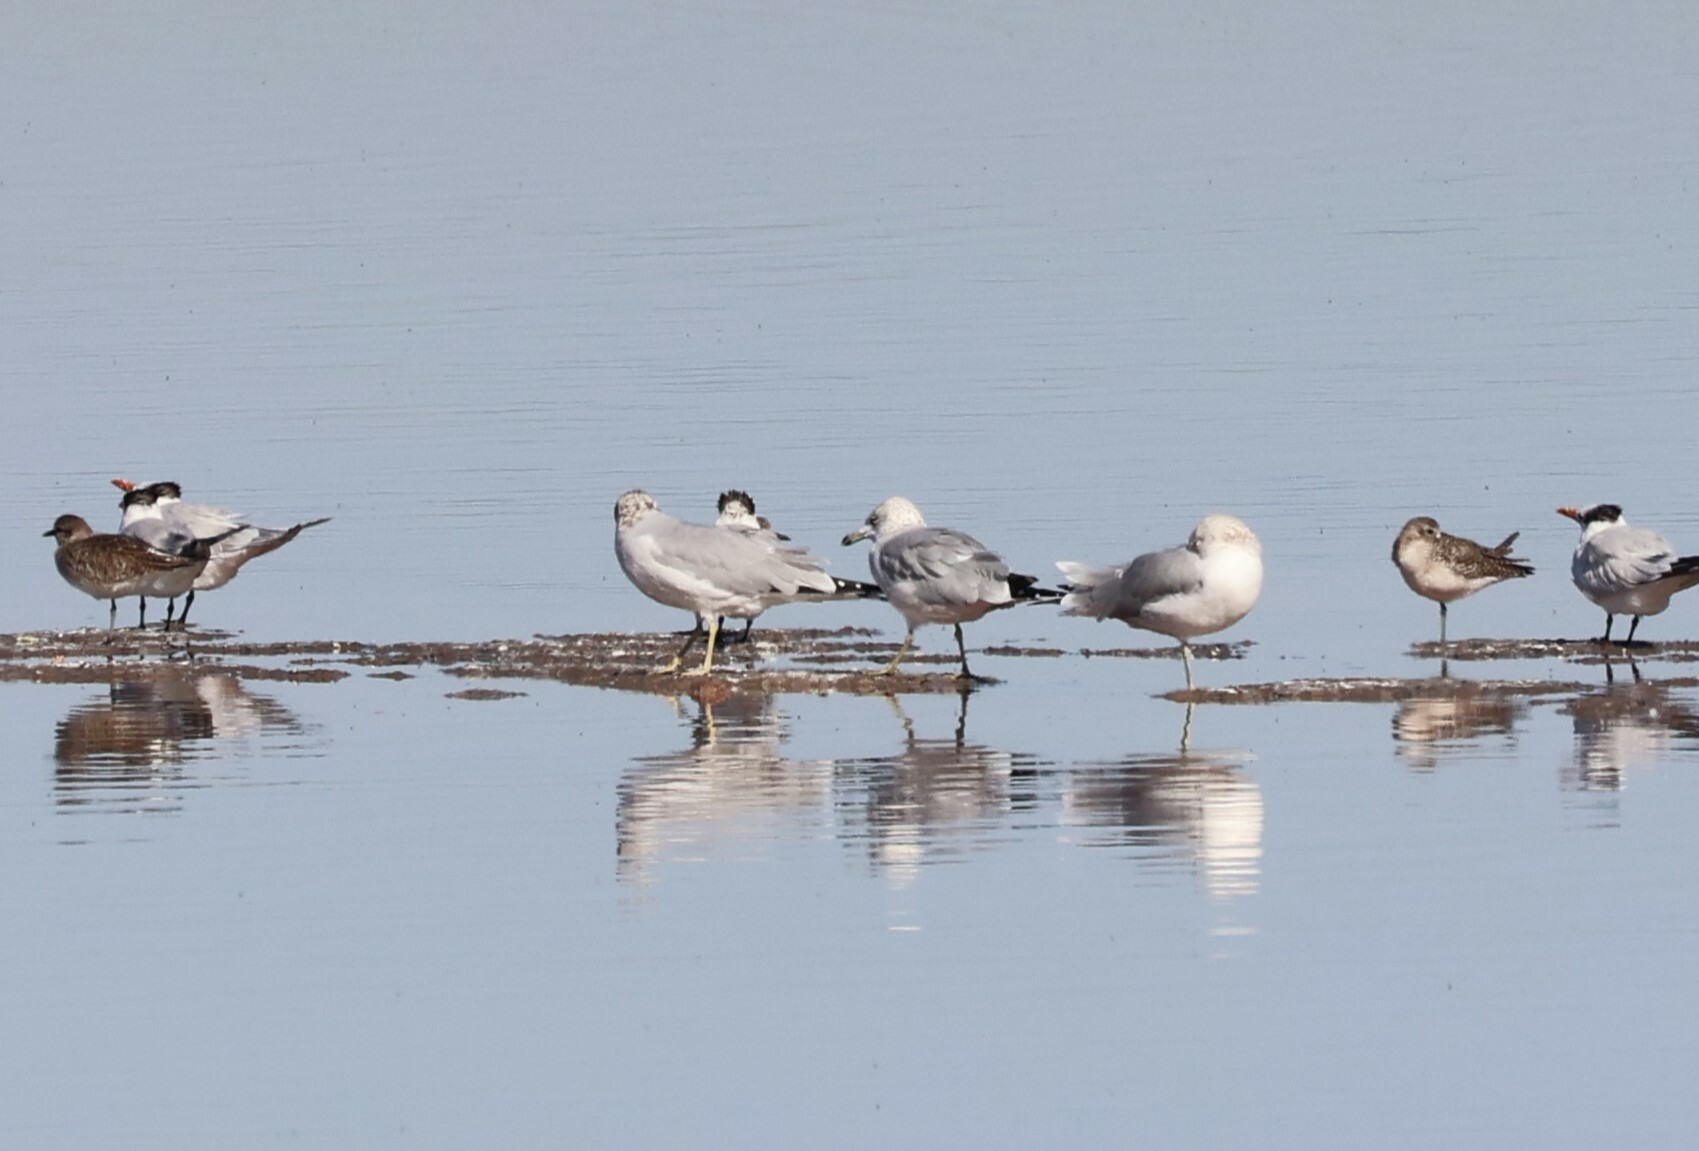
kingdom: Animalia
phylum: Chordata
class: Aves
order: Charadriiformes
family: Laridae
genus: Larus
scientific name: Larus delawarensis
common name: Ring-billed gull
